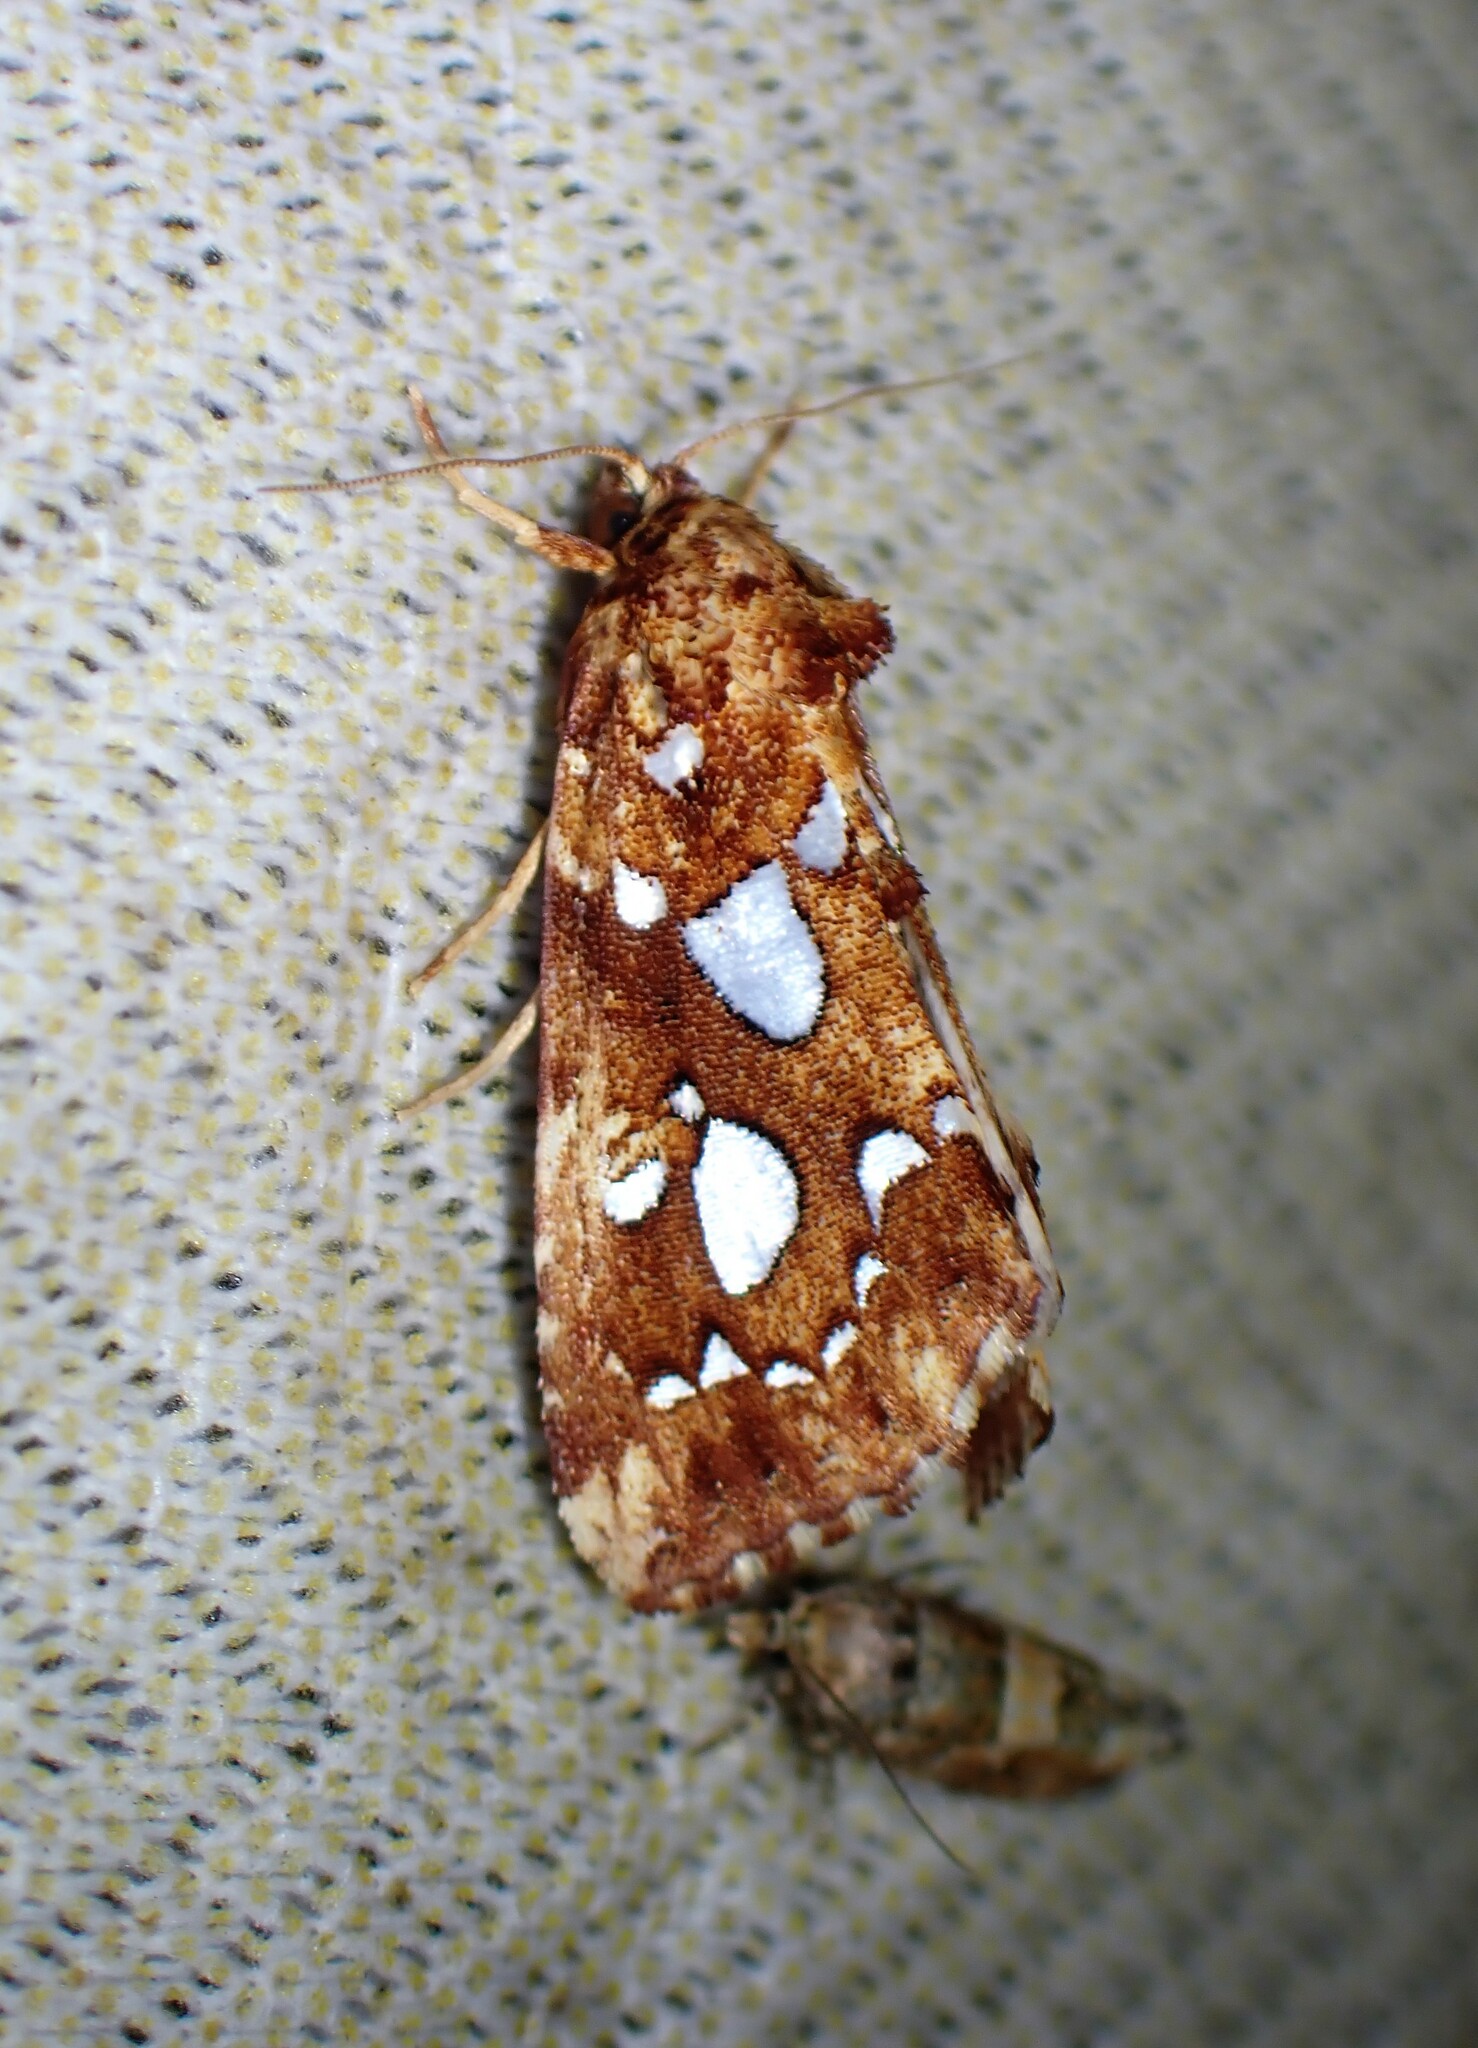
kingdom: Animalia
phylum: Arthropoda
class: Insecta
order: Lepidoptera
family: Noctuidae
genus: Callopistria
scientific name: Callopistria cordata
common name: Silver-spotted fern moth
